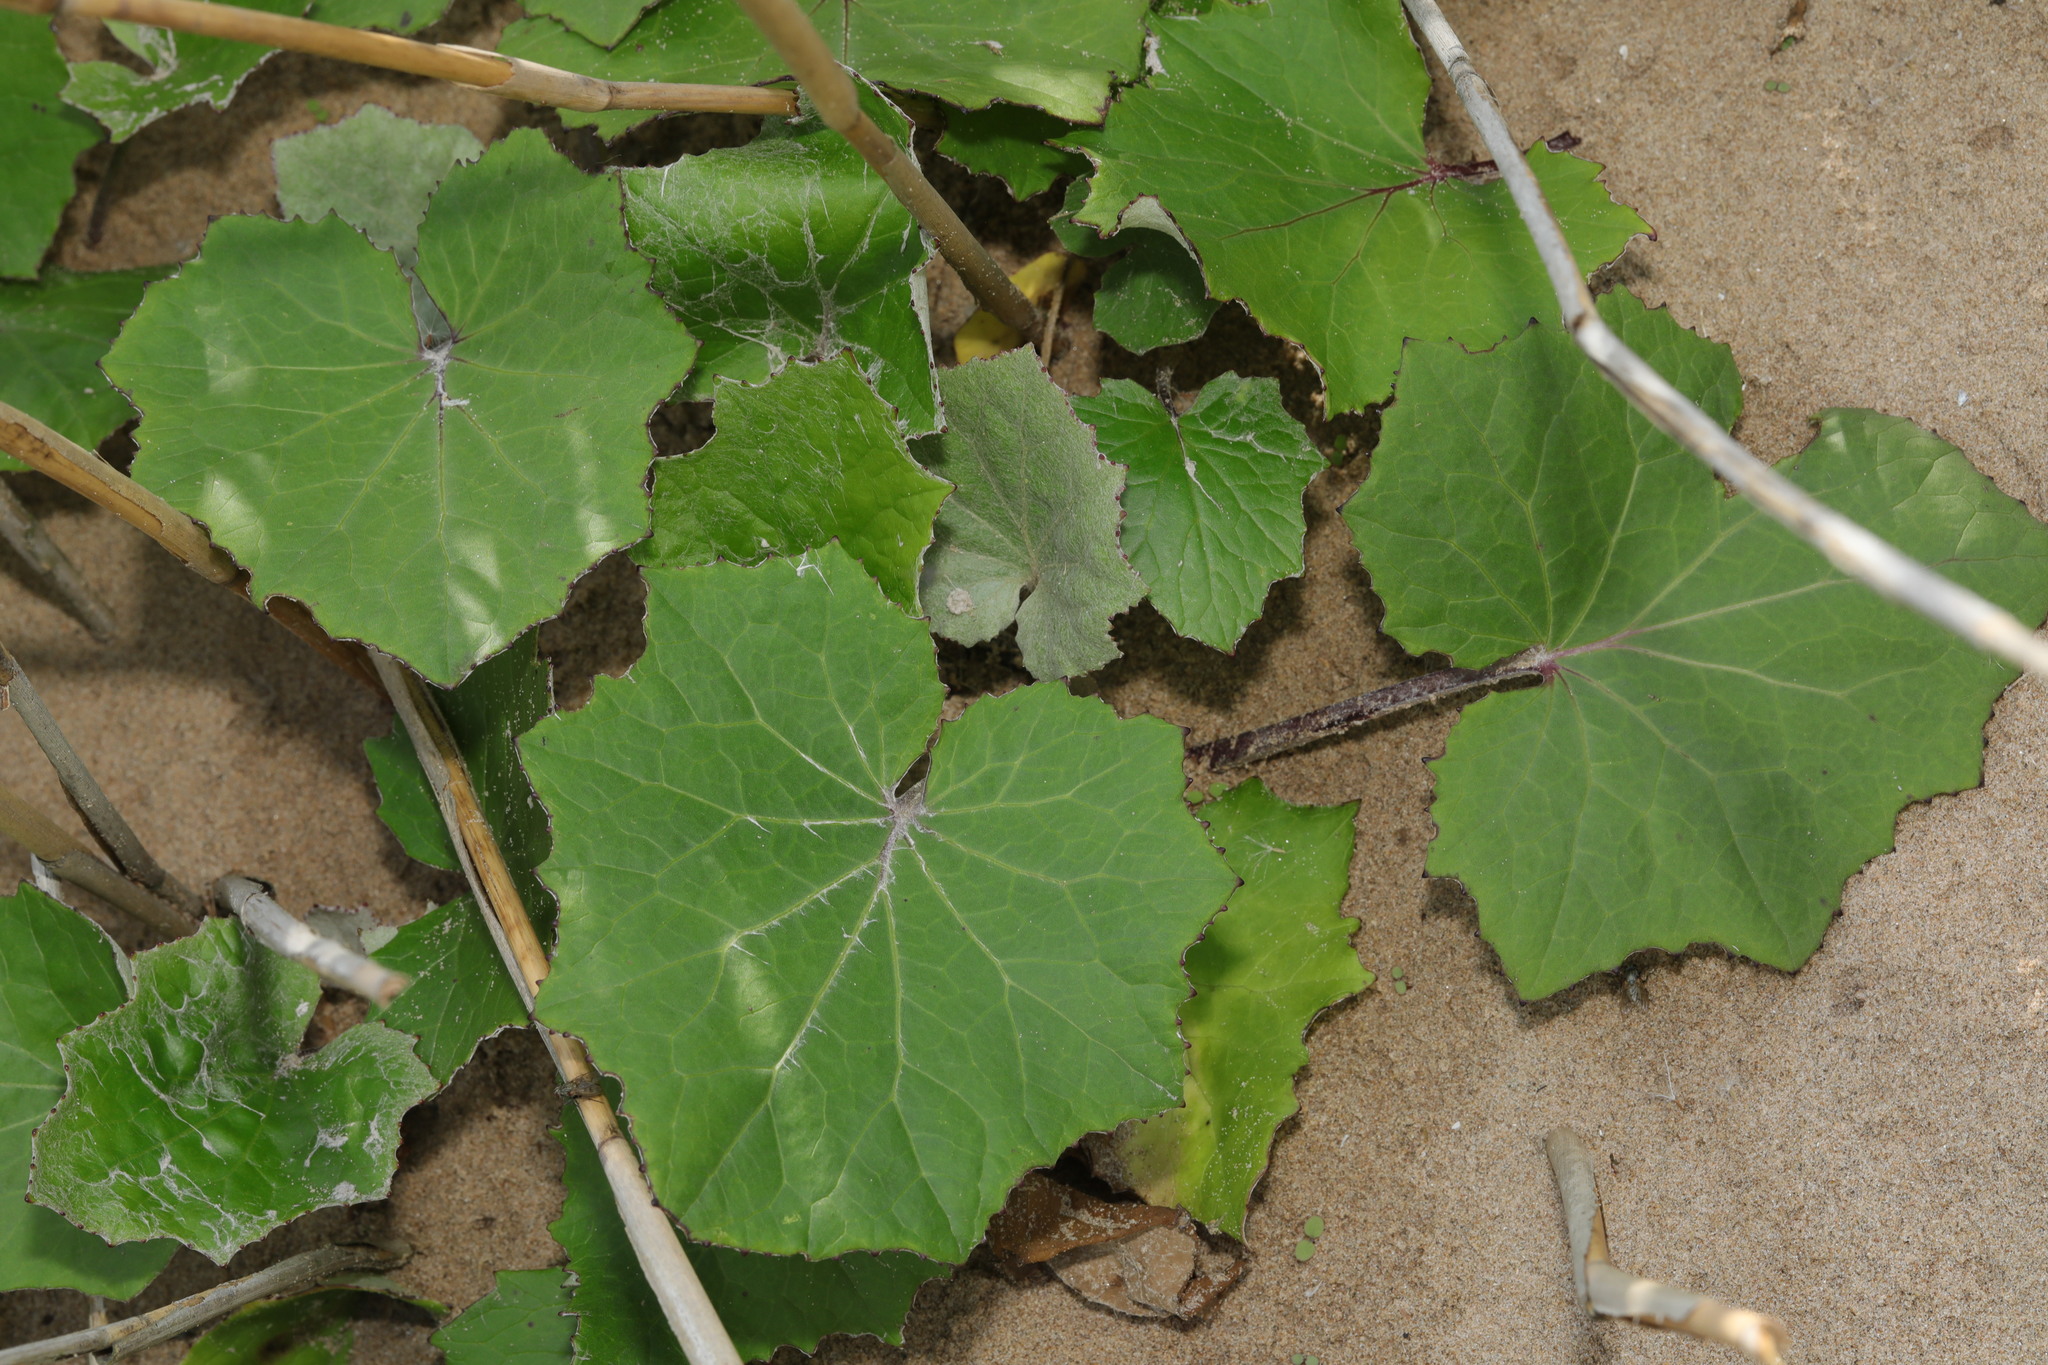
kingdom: Plantae
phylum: Tracheophyta
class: Magnoliopsida
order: Asterales
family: Asteraceae
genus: Tussilago
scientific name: Tussilago farfara
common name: Coltsfoot
